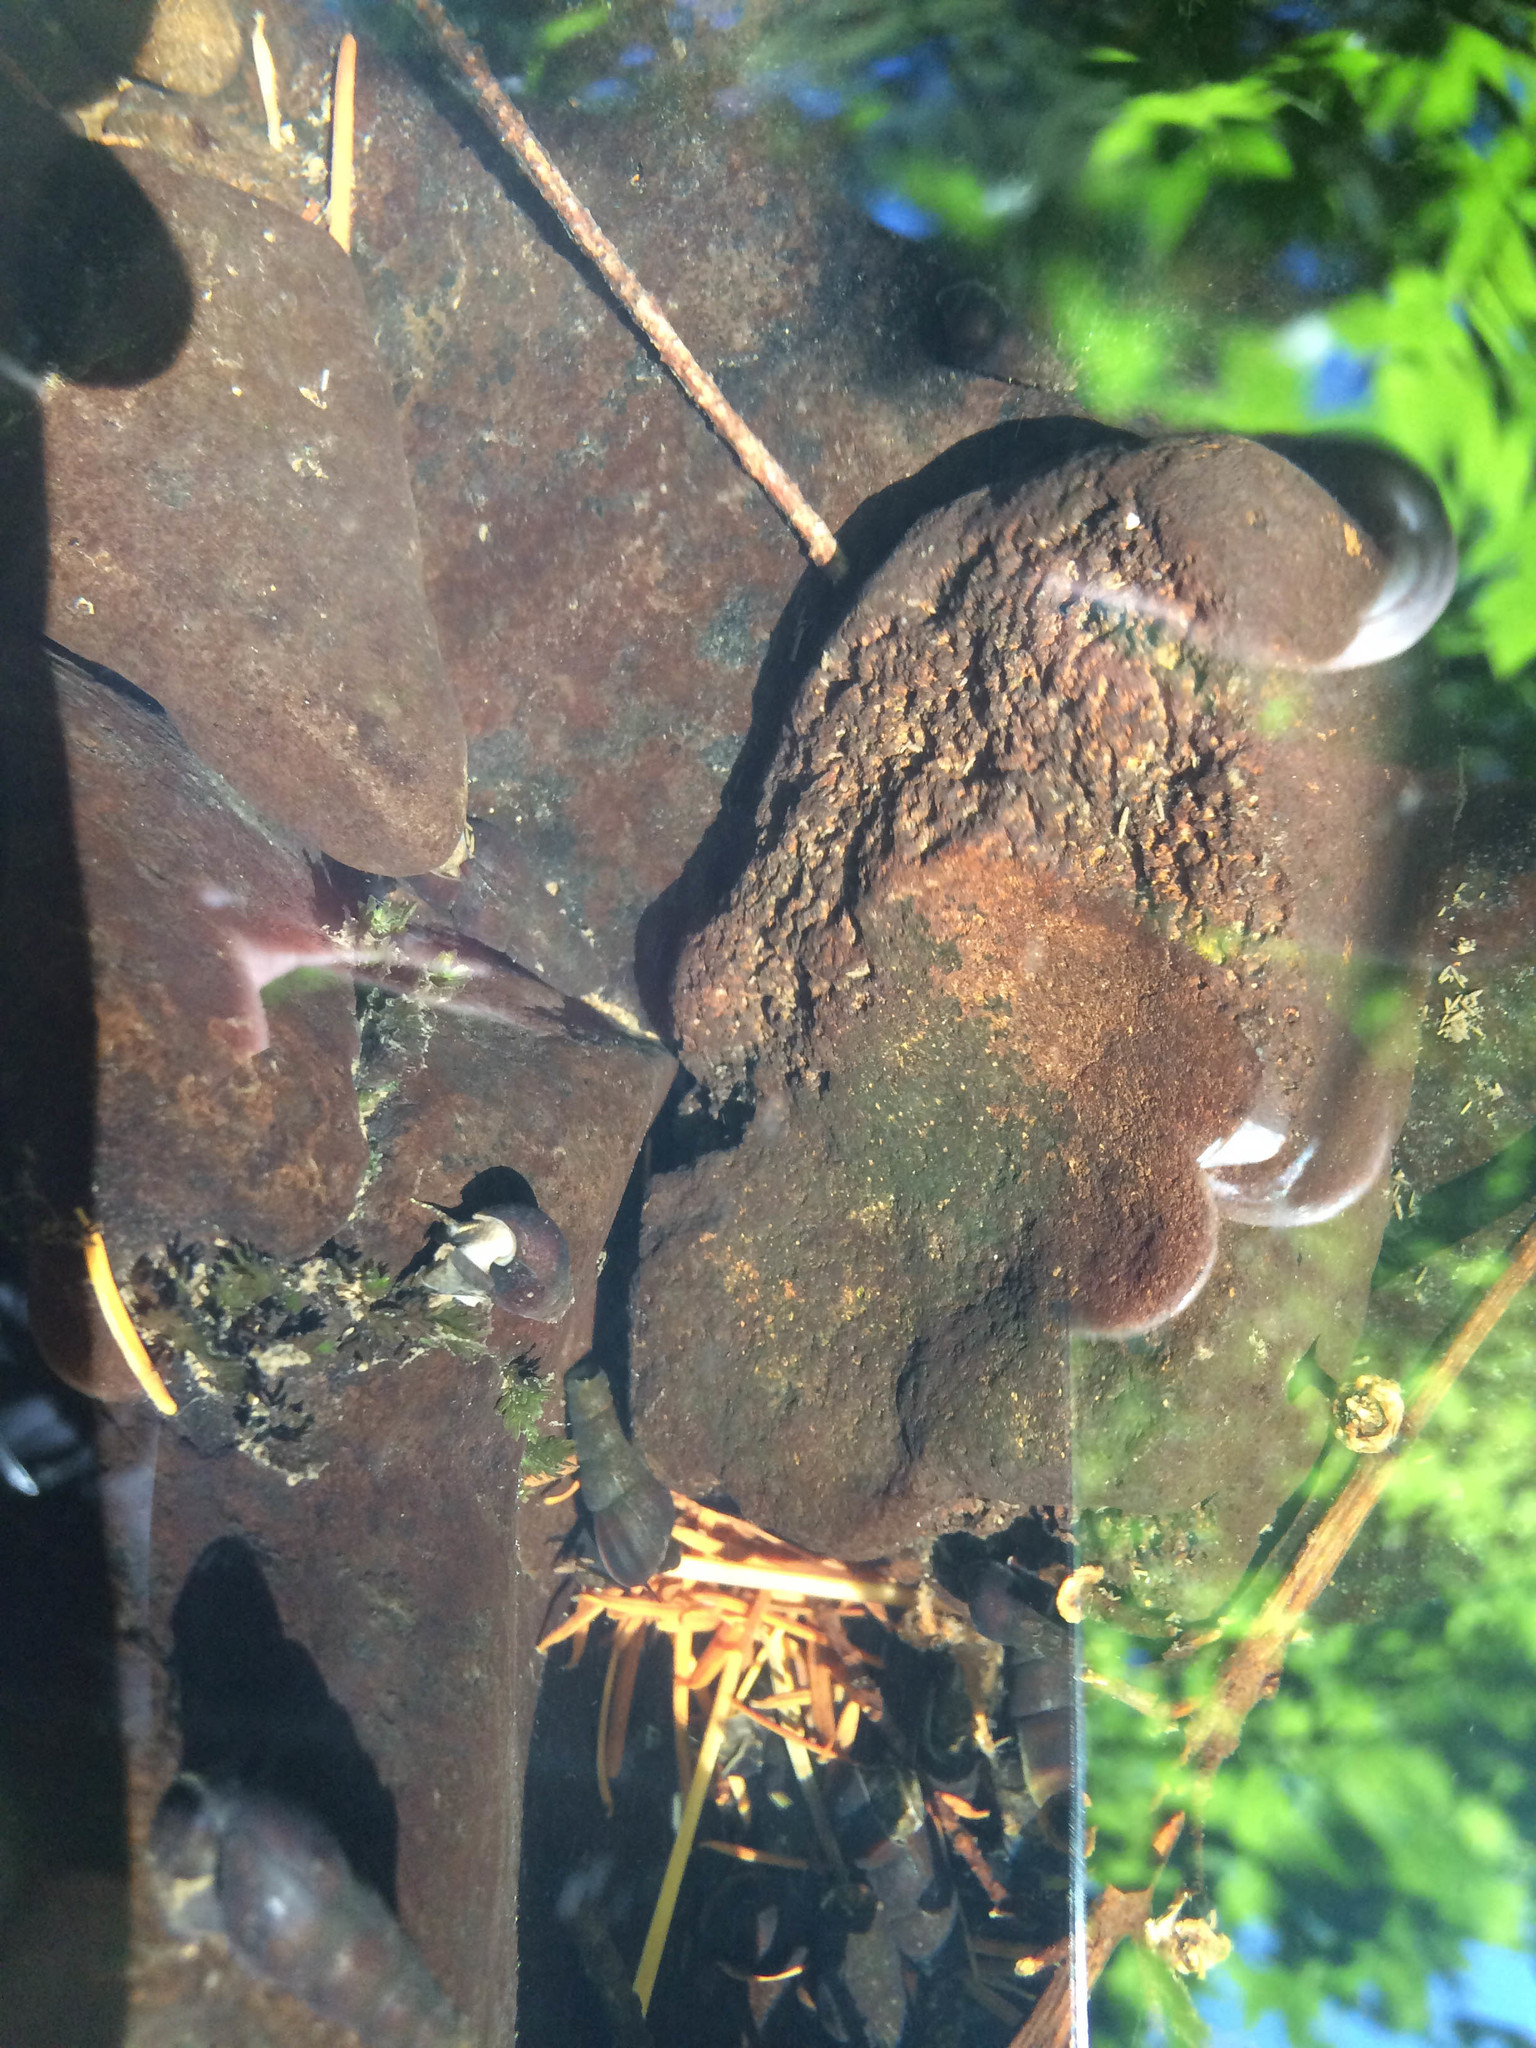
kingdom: Animalia
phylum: Mollusca
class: Gastropoda
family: Semisulcospiridae
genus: Juga
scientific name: Juga plicifera
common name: Pleated juga
